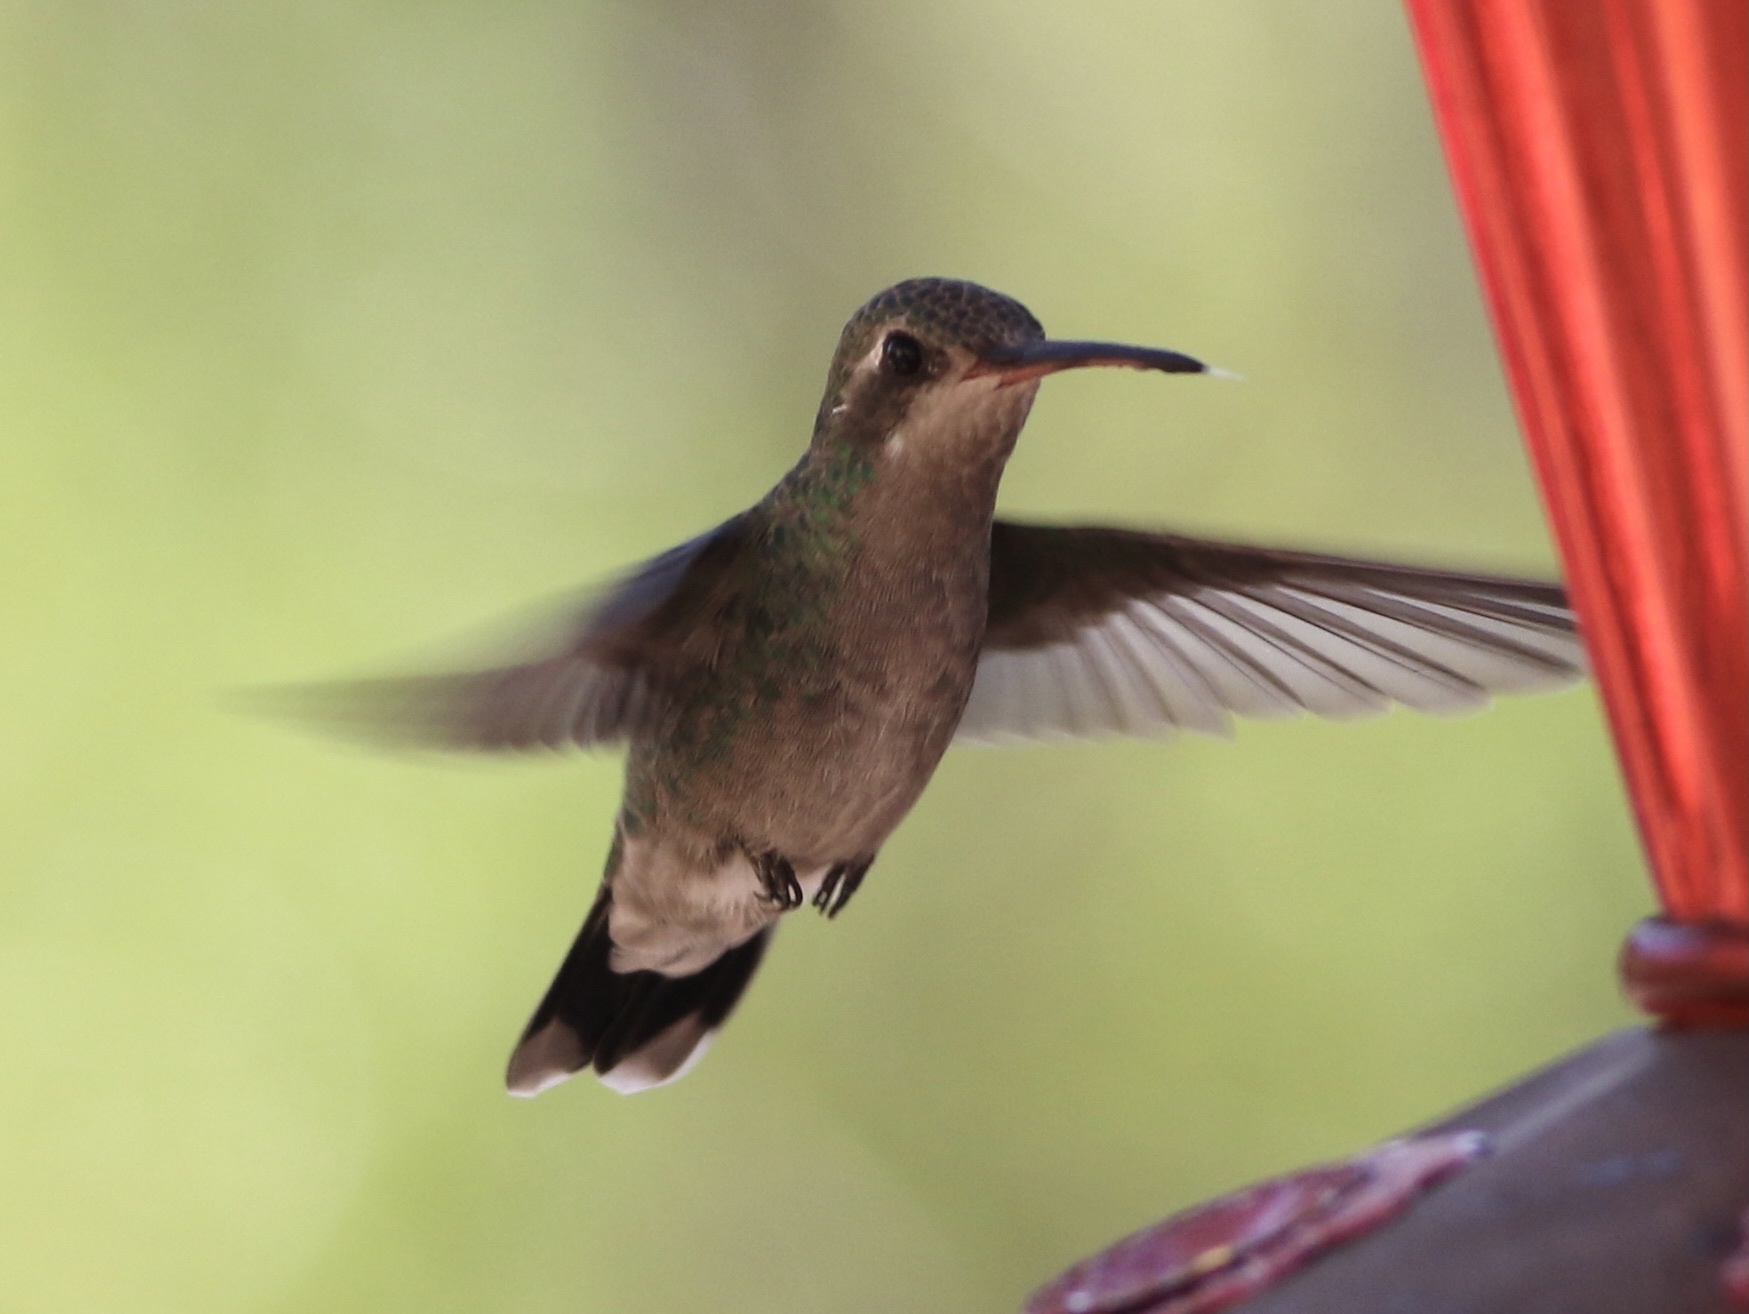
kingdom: Animalia
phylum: Chordata
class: Aves
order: Apodiformes
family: Trochilidae
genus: Cynanthus
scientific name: Cynanthus latirostris
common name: Broad-billed hummingbird
